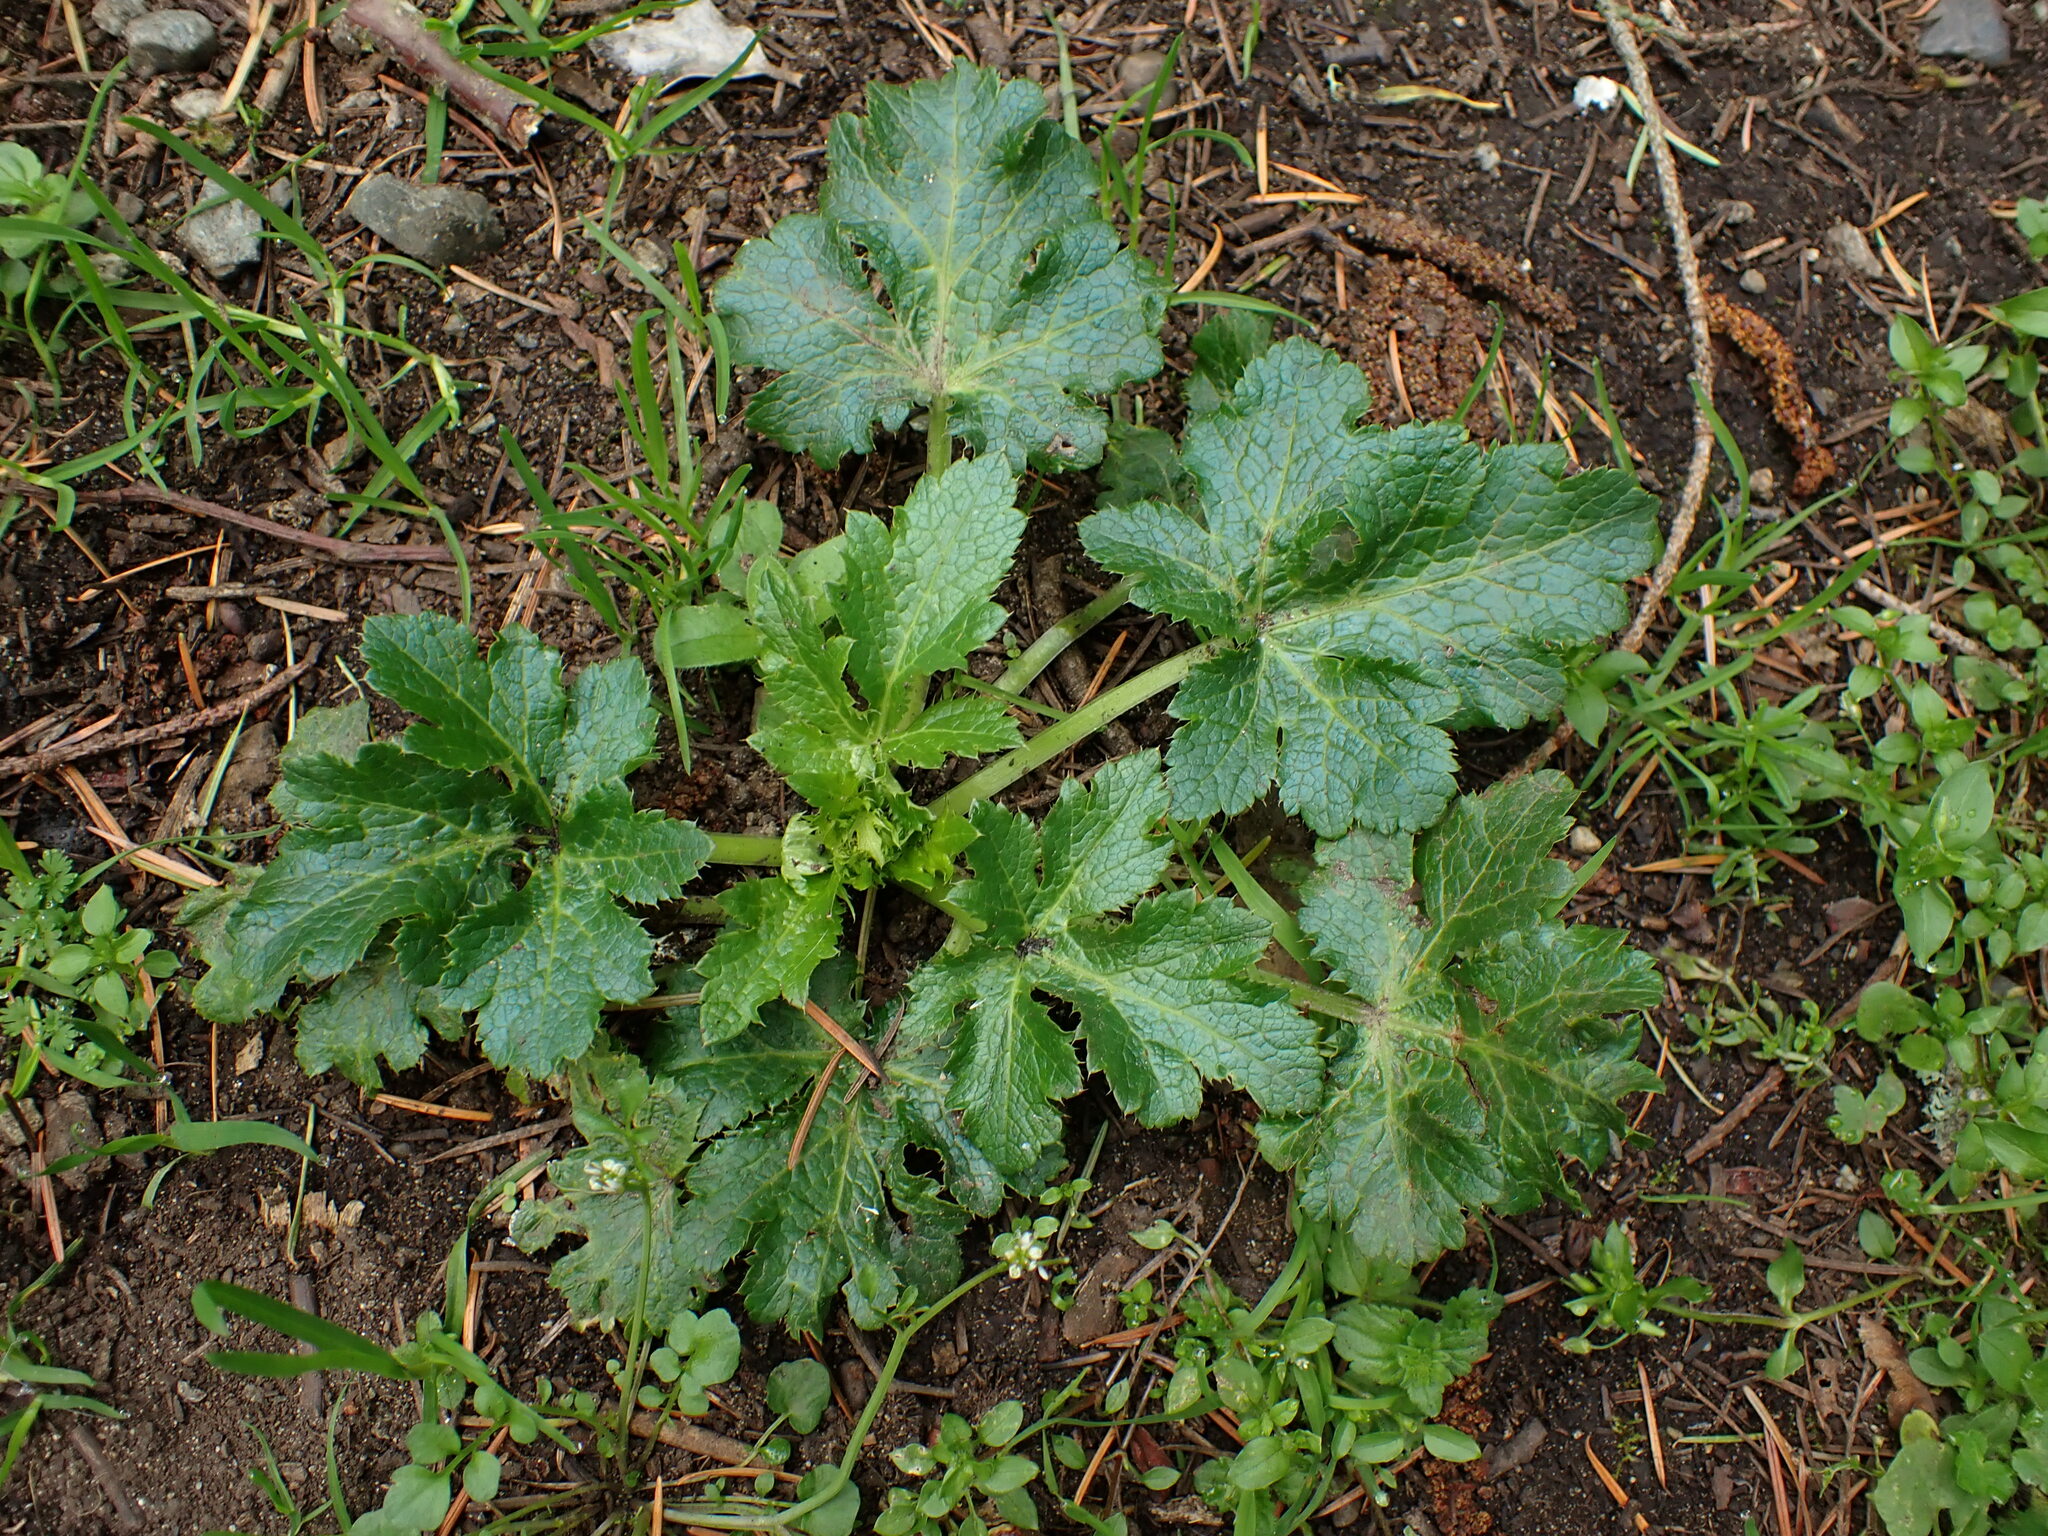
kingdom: Plantae
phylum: Tracheophyta
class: Magnoliopsida
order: Apiales
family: Apiaceae
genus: Sanicula
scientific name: Sanicula crassicaulis
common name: Western snakeroot
